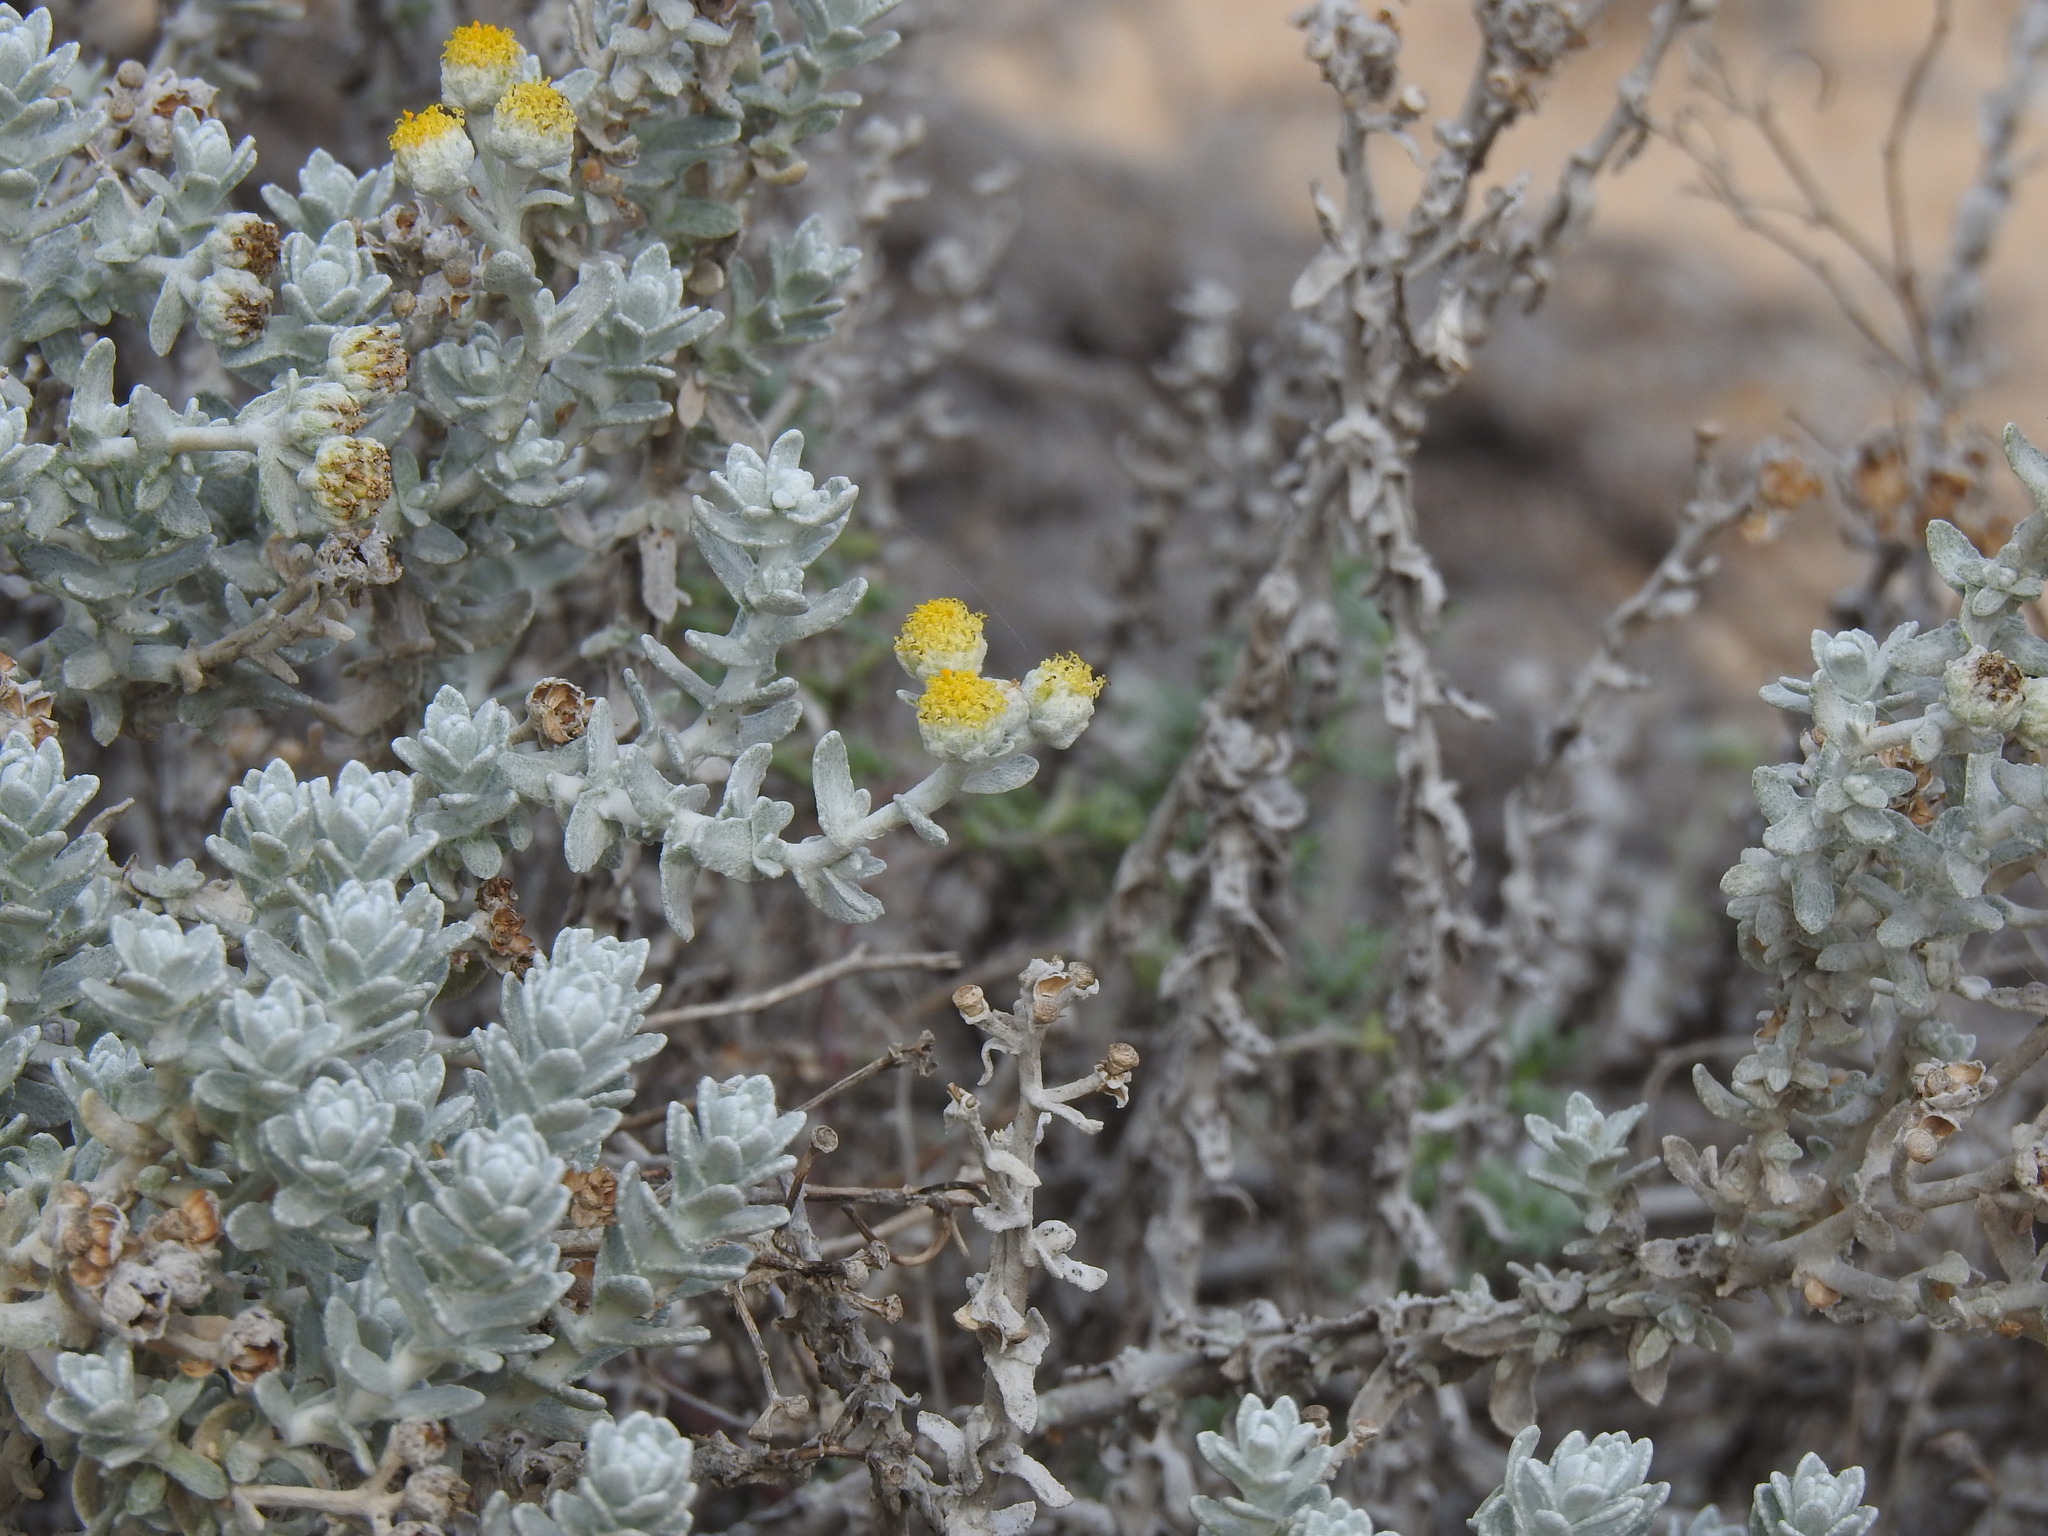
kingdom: Plantae
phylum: Tracheophyta
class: Magnoliopsida
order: Asterales
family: Asteraceae
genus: Achillea
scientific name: Achillea maritima
